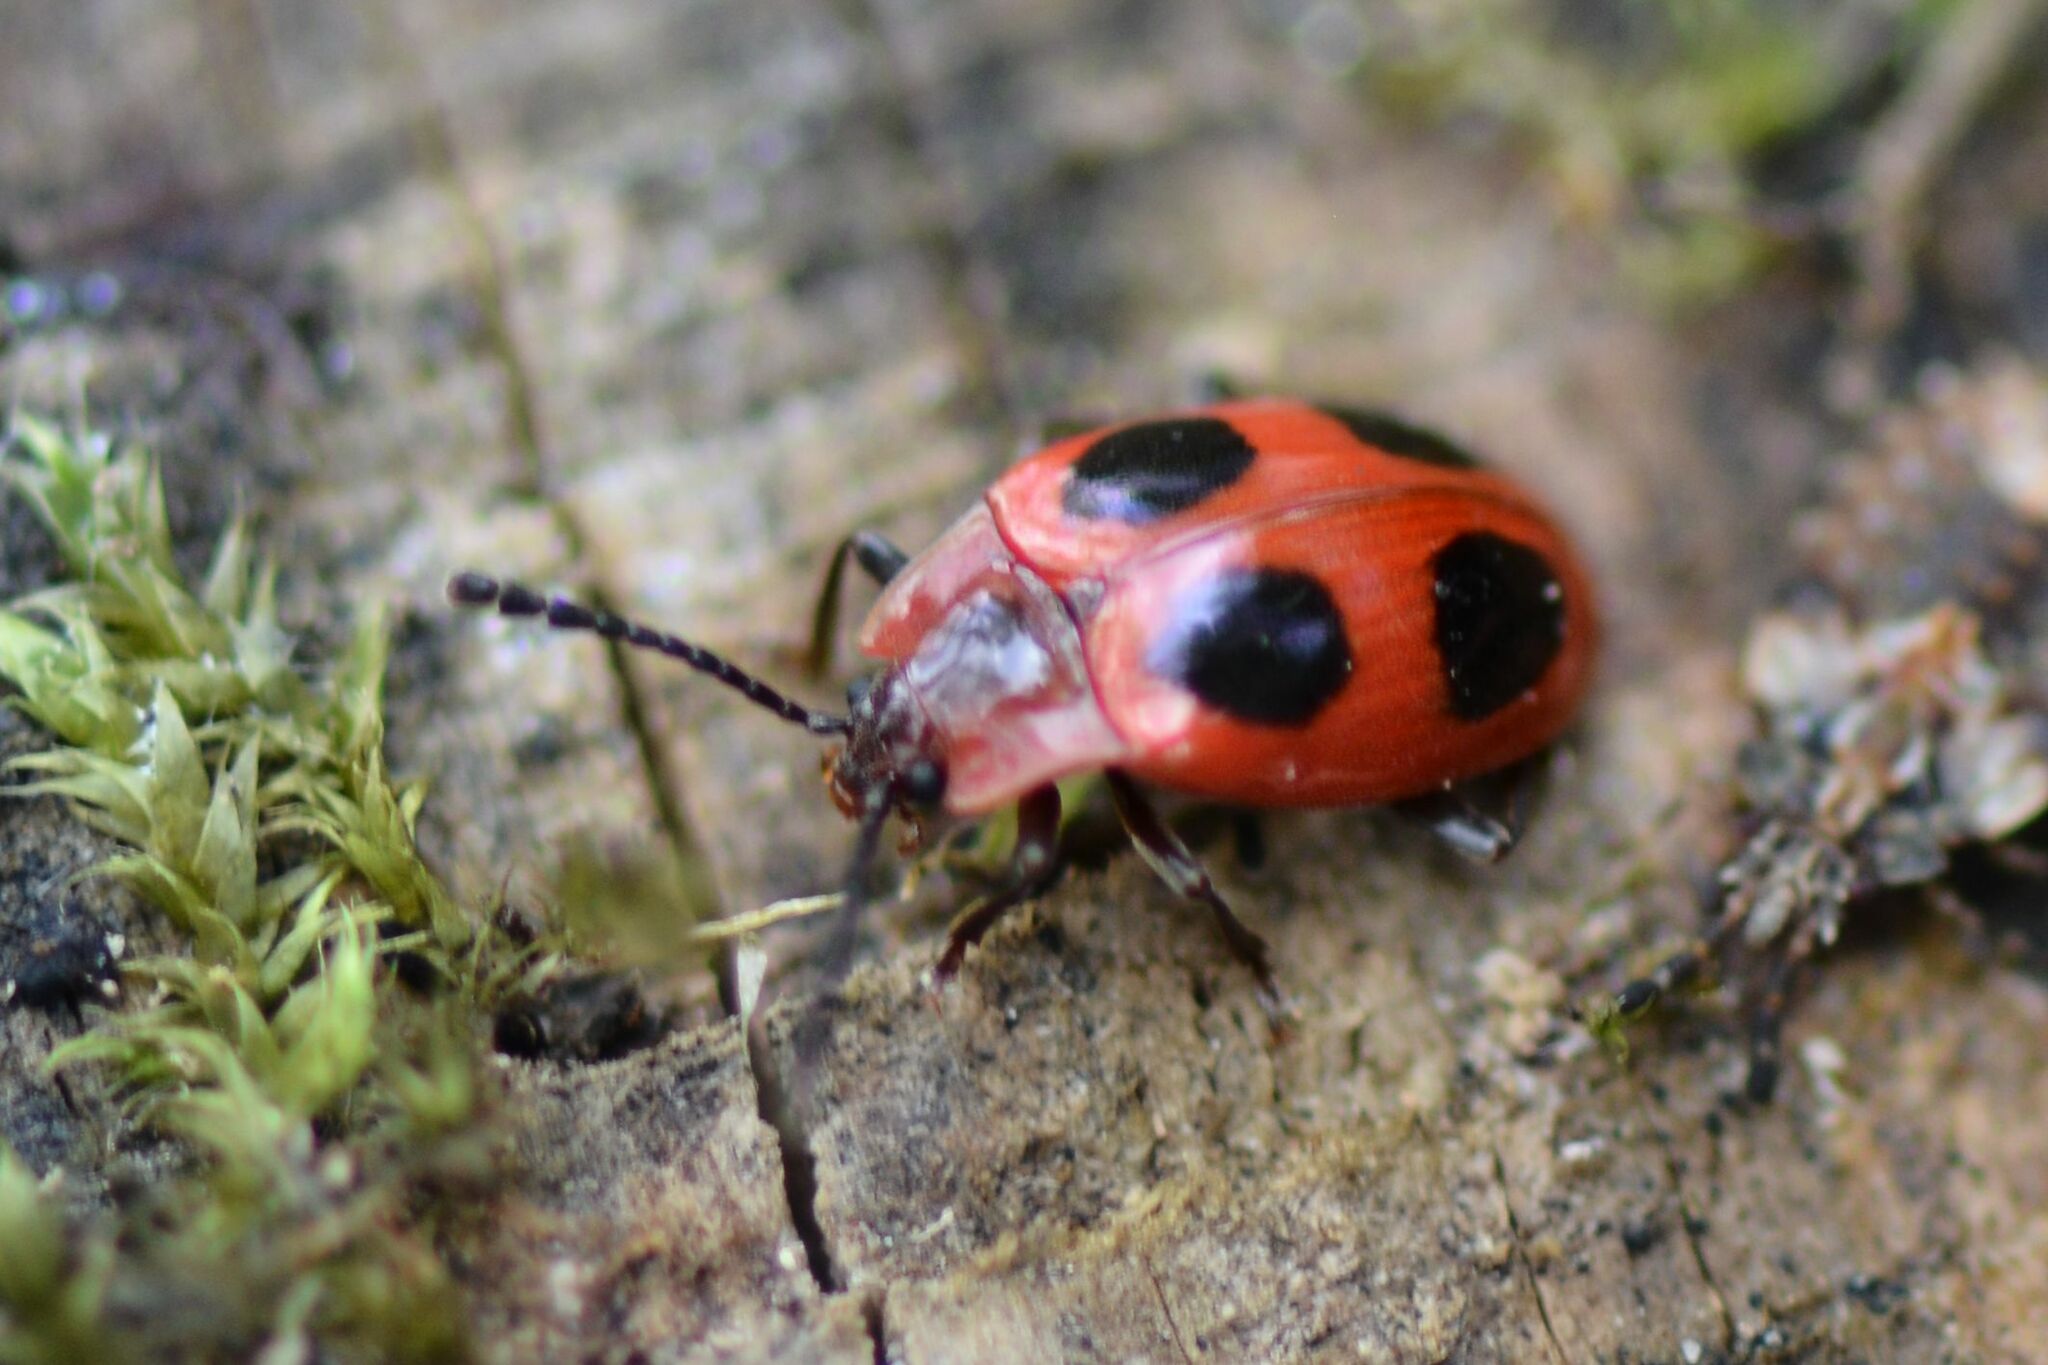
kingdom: Animalia
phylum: Arthropoda
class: Insecta
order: Coleoptera
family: Endomychidae
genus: Endomychus
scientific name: Endomychus coccineus
